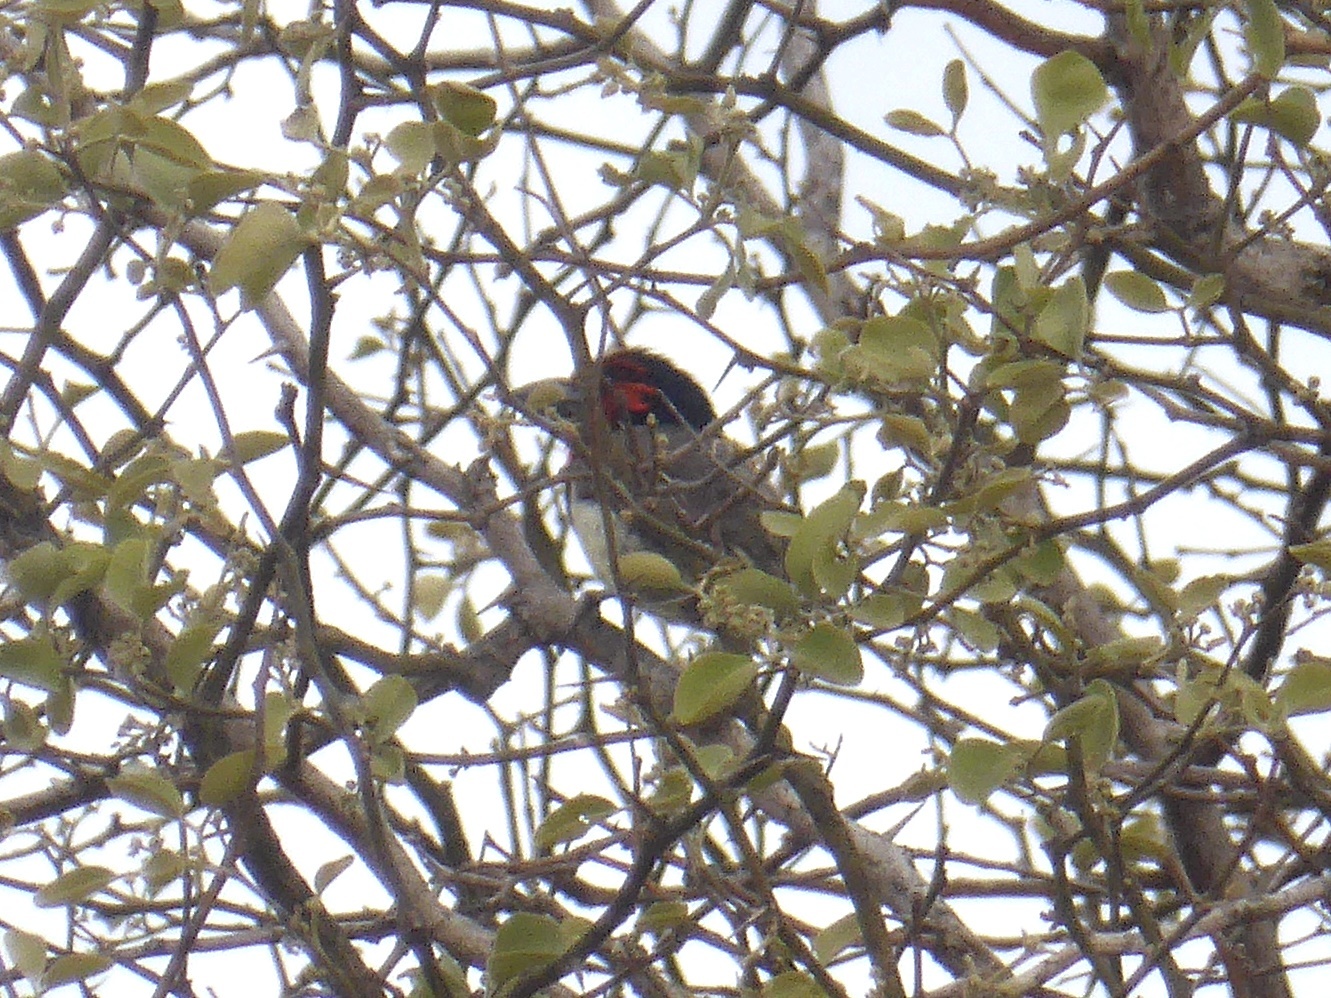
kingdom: Animalia
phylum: Chordata
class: Aves
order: Piciformes
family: Lybiidae
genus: Lybius
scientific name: Lybius torquatus
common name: Black-collared barbet
